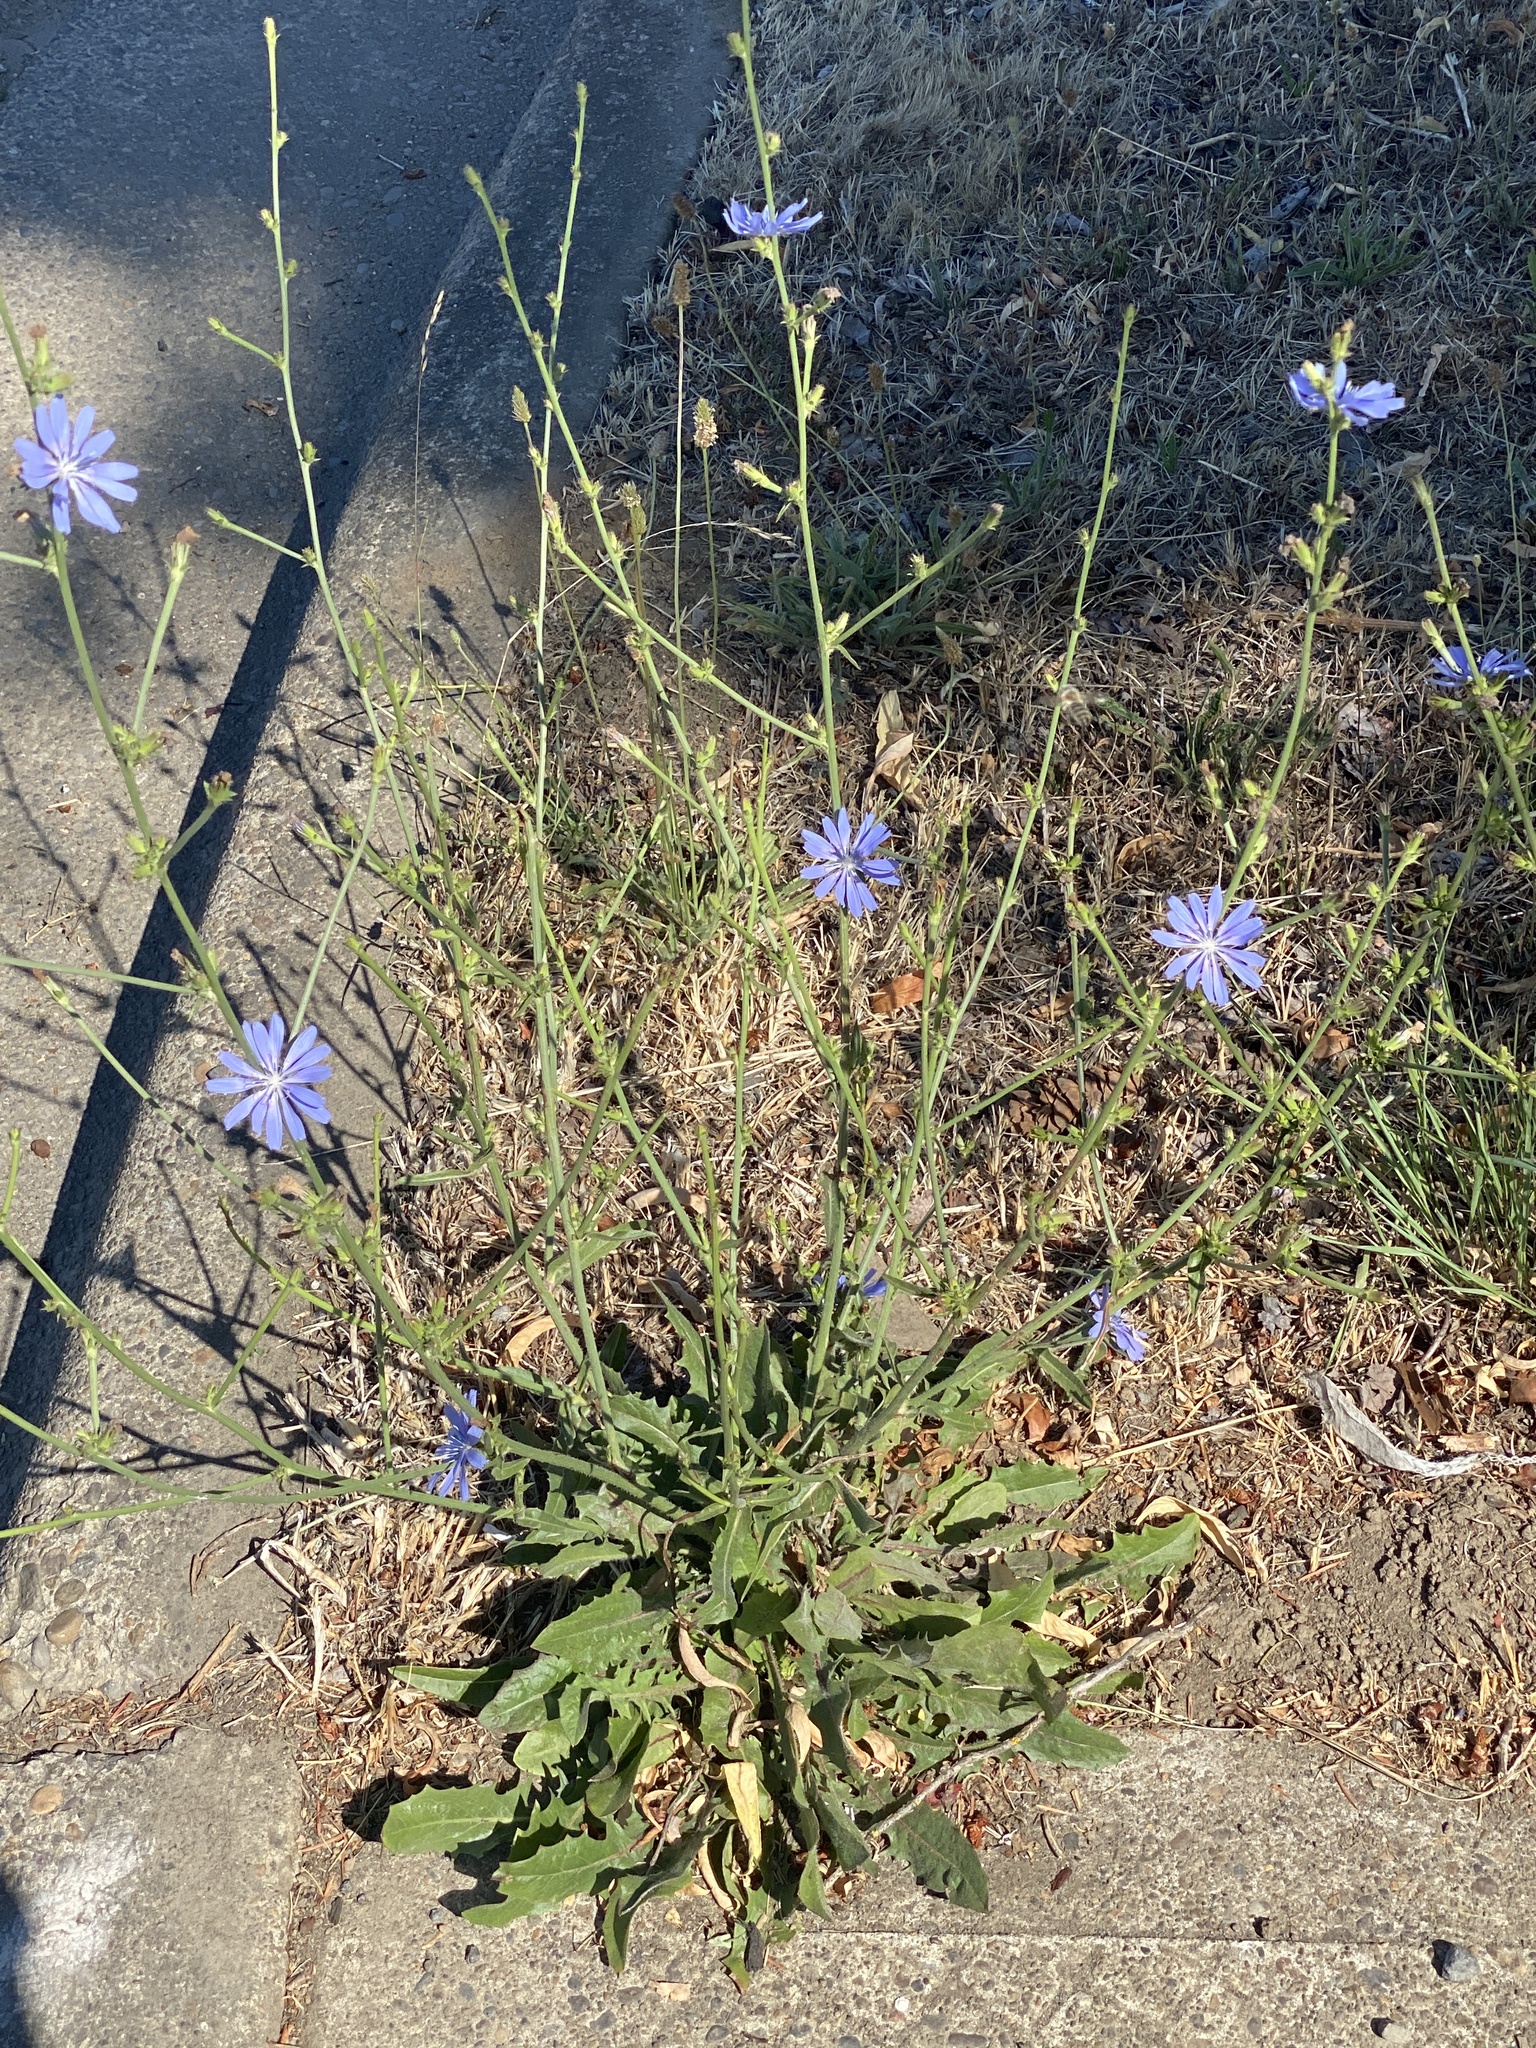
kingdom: Plantae
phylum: Tracheophyta
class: Magnoliopsida
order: Asterales
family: Asteraceae
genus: Cichorium
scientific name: Cichorium intybus
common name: Chicory
